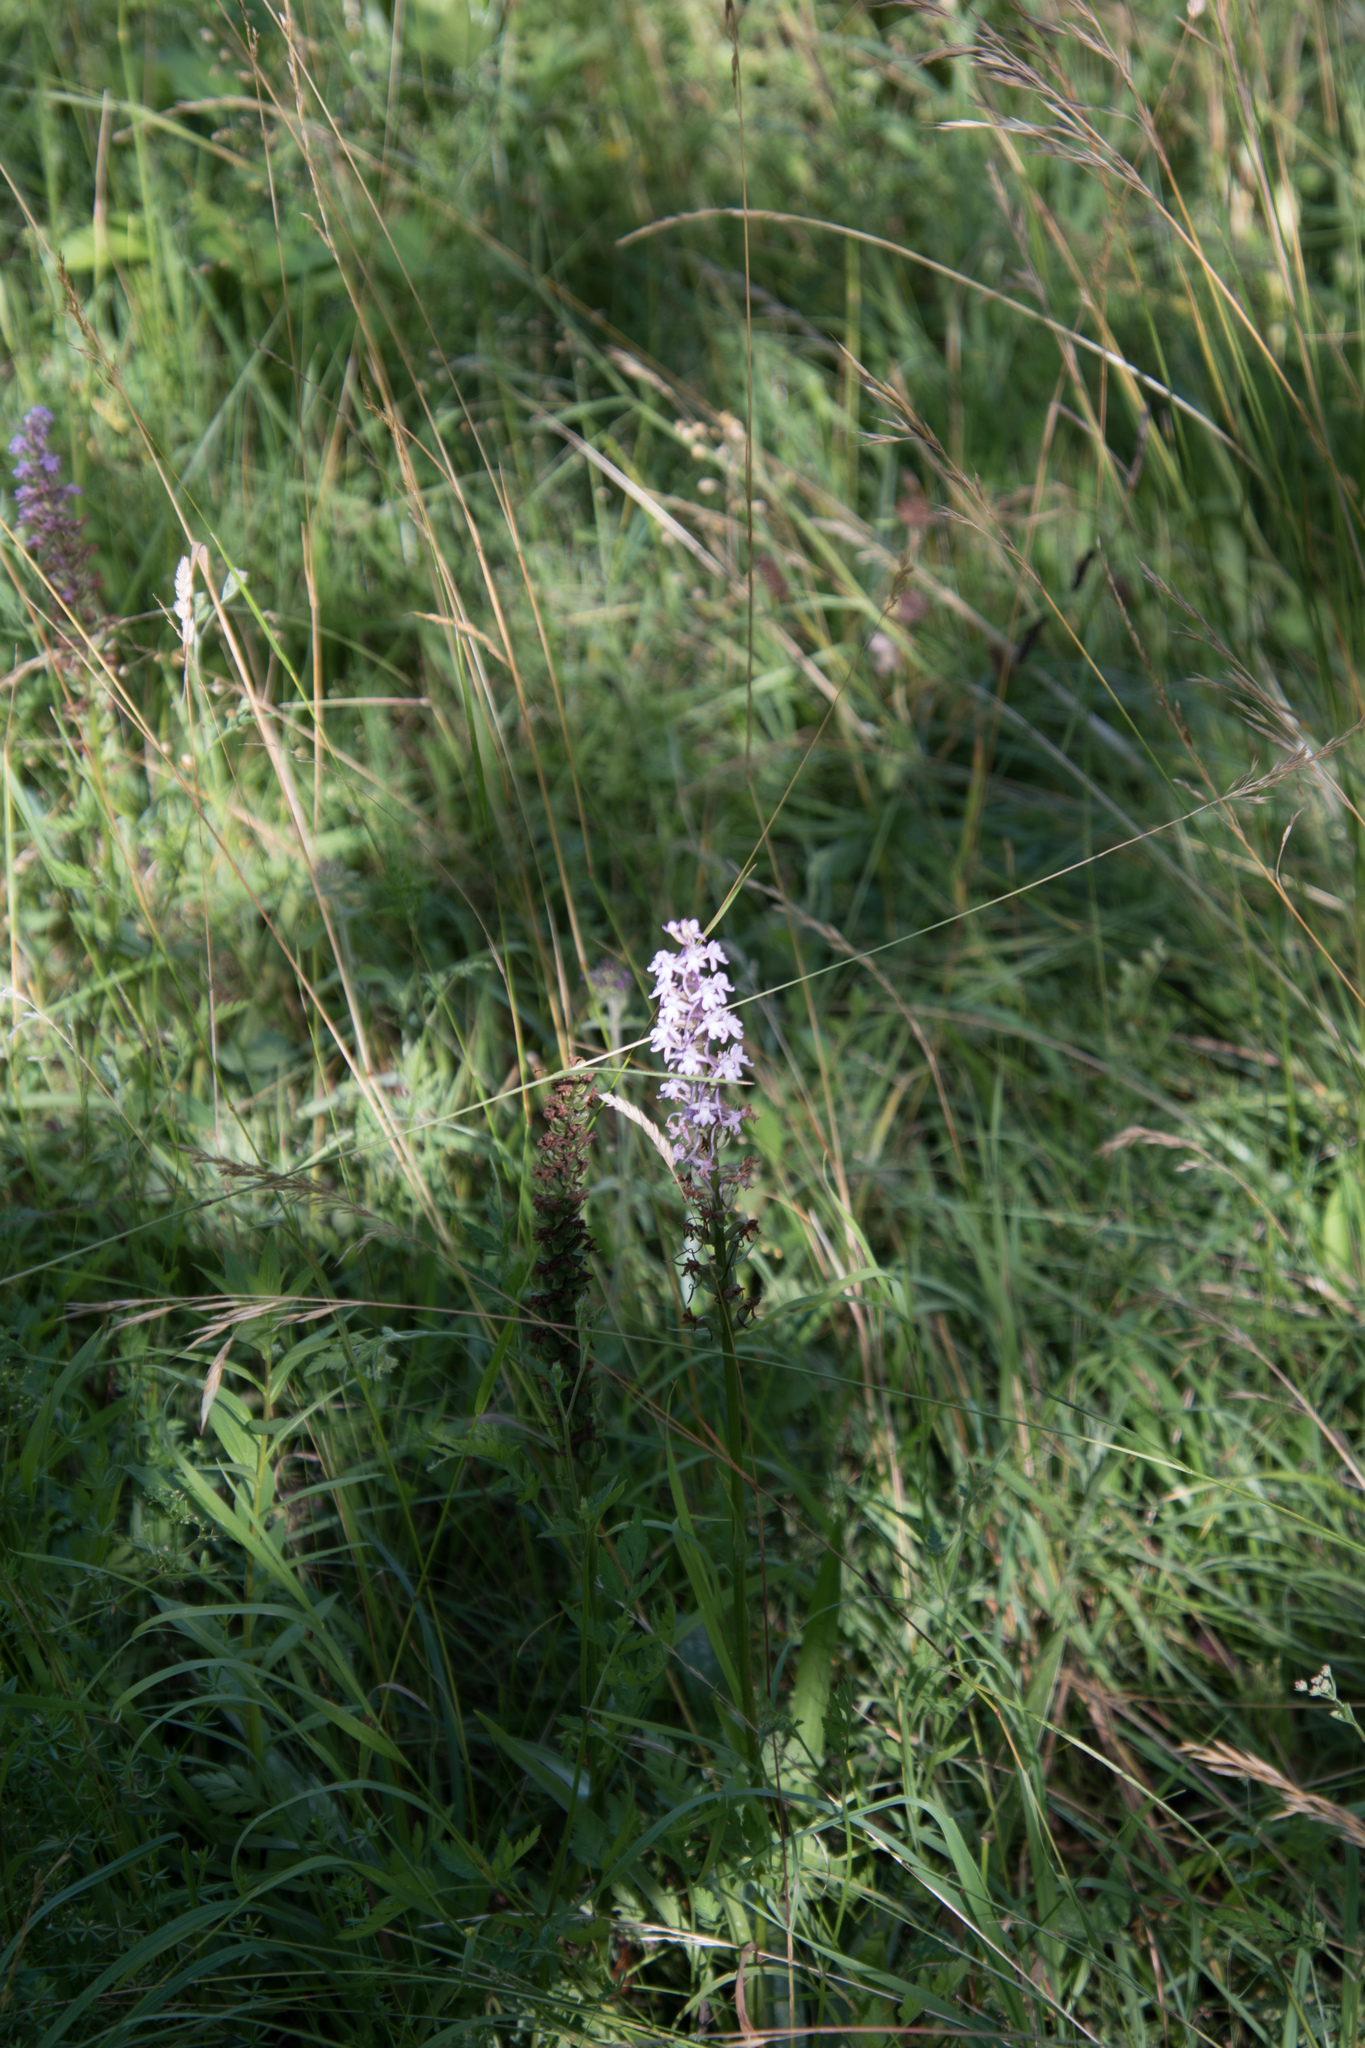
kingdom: Plantae
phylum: Tracheophyta
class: Liliopsida
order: Asparagales
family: Orchidaceae
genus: Gymnadenia
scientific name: Gymnadenia conopsea
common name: Fragrant orchid
